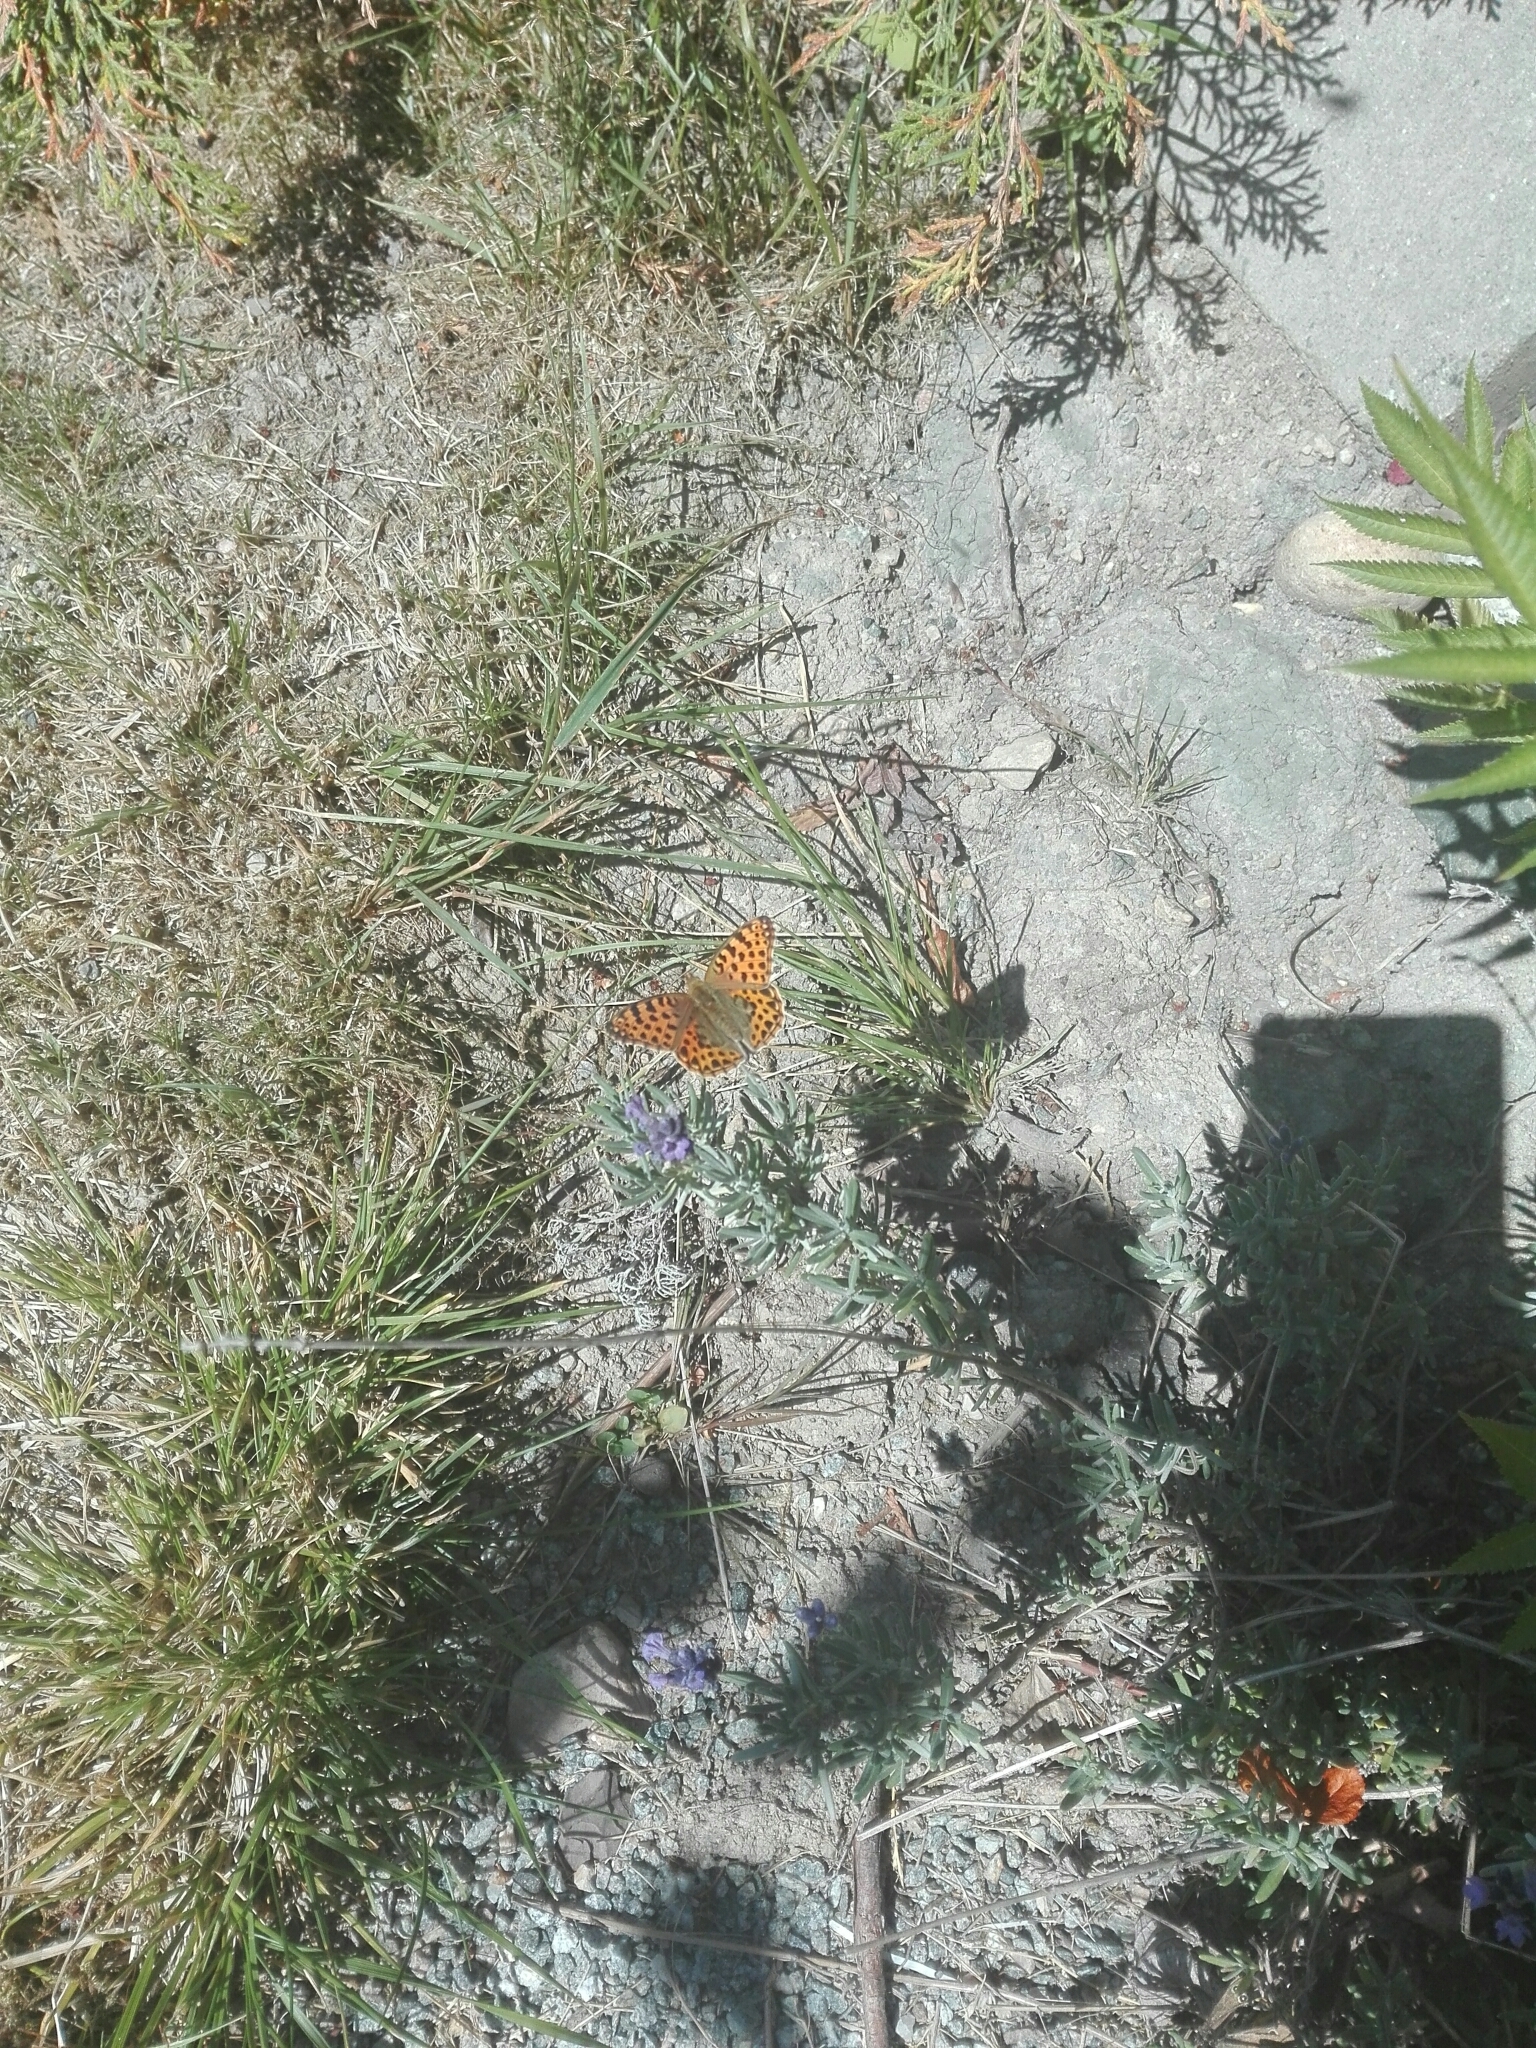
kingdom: Animalia
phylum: Arthropoda
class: Insecta
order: Lepidoptera
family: Nymphalidae
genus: Issoria
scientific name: Issoria lathonia
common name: Queen of spain fritillary
